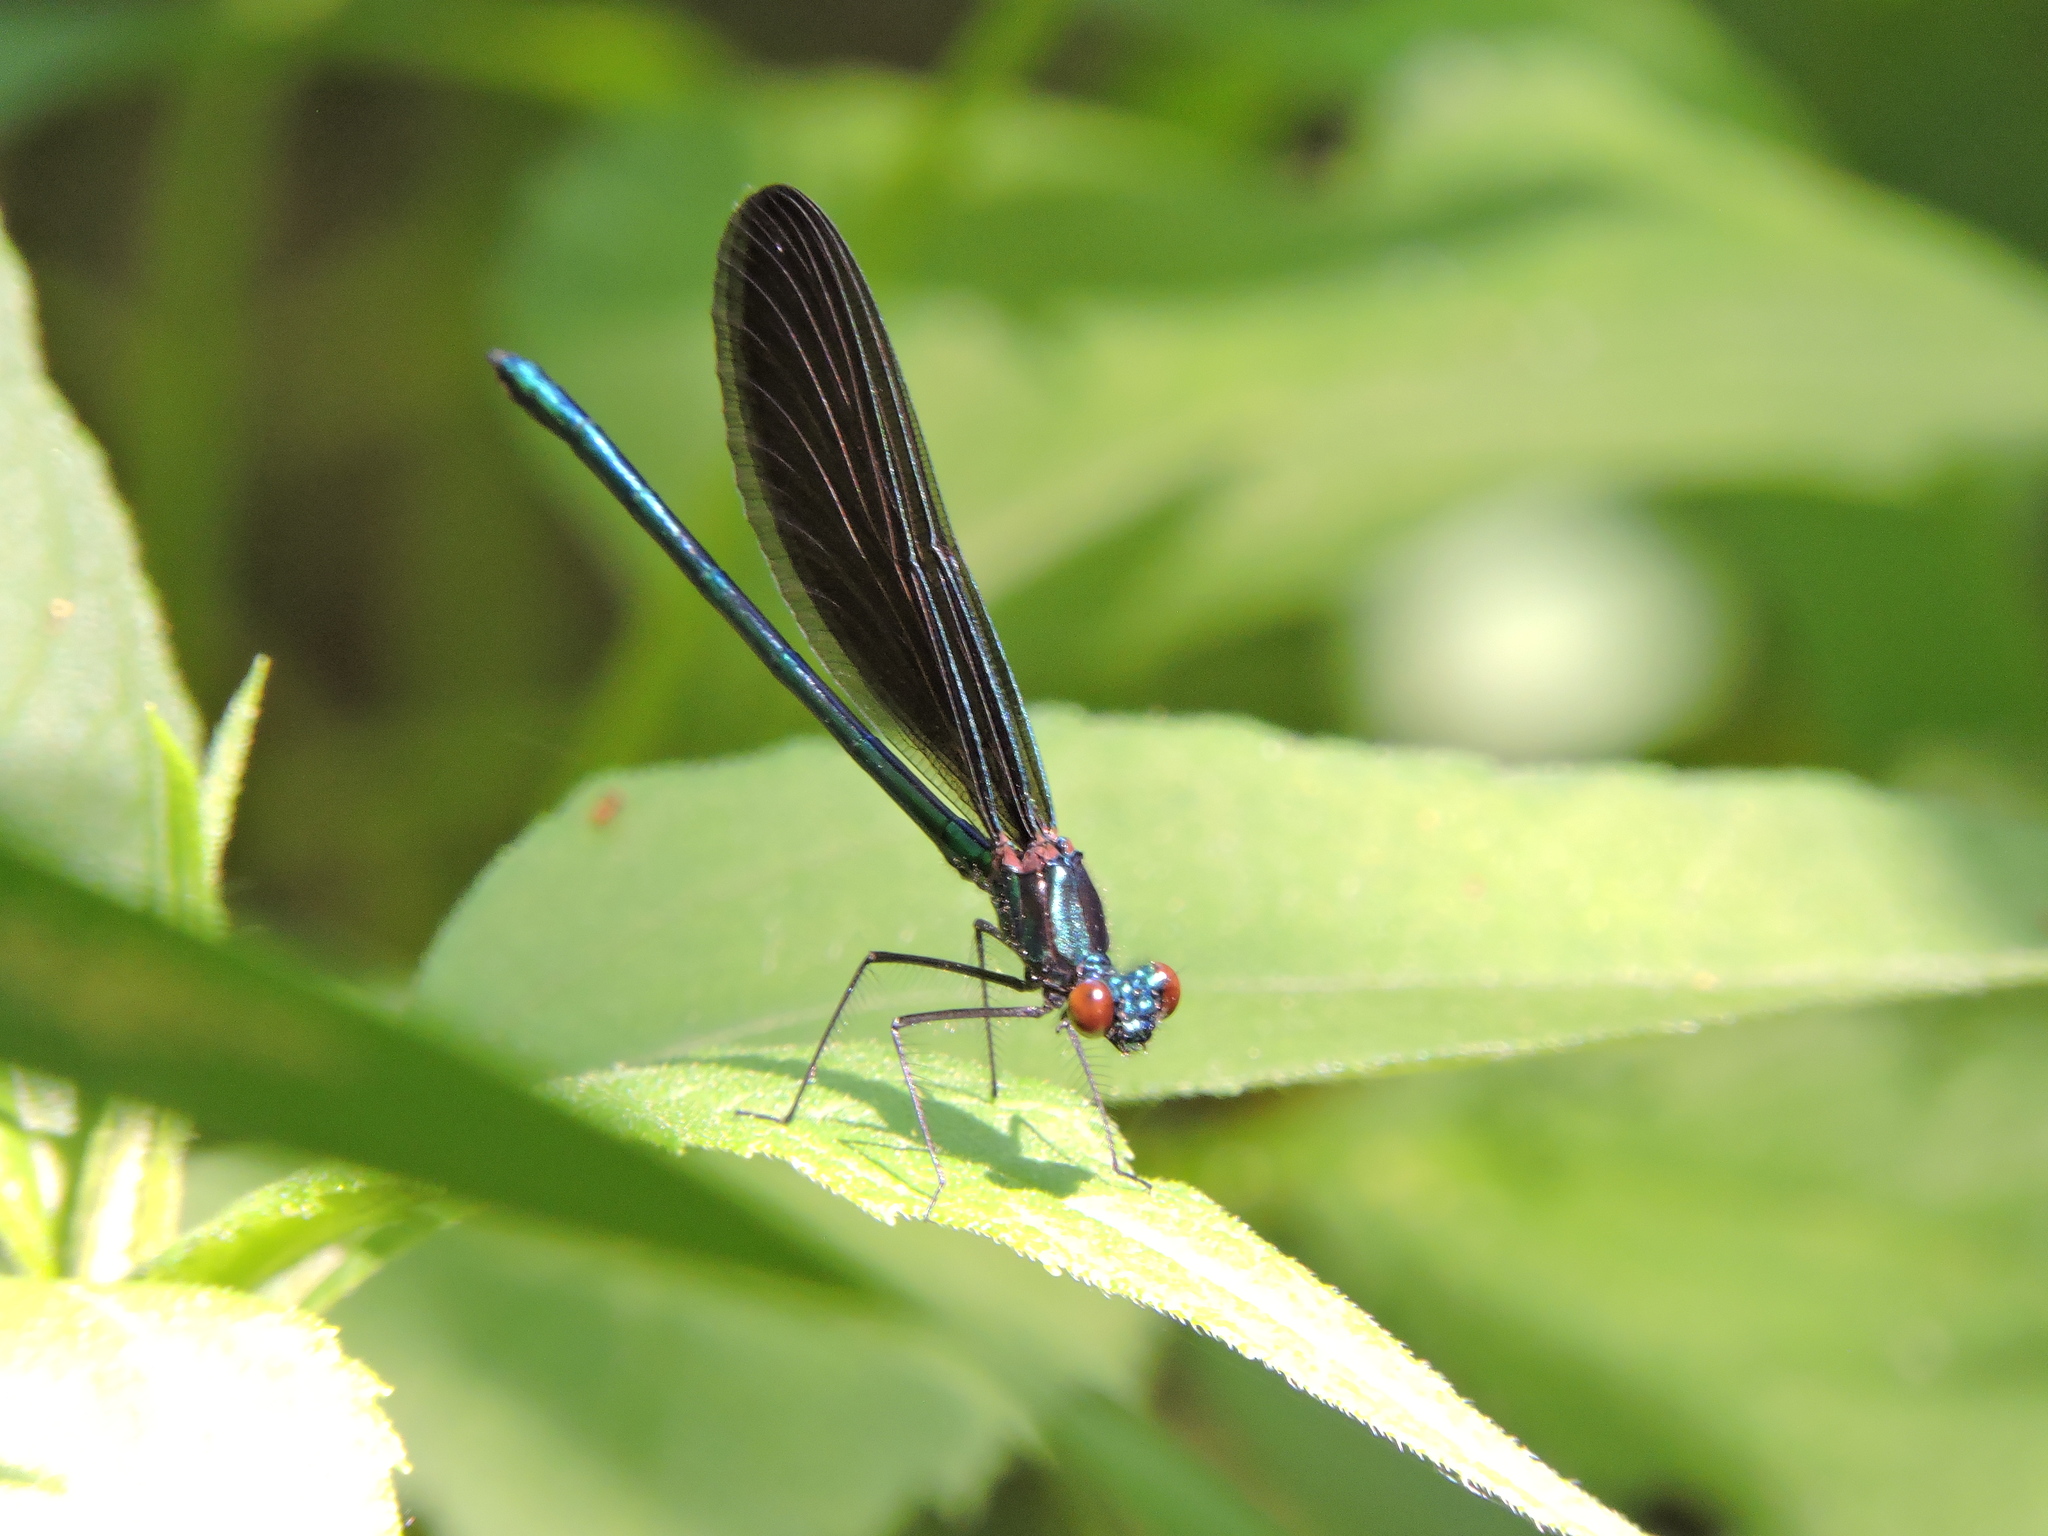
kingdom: Animalia
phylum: Arthropoda
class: Insecta
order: Odonata
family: Calopterygidae
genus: Calopteryx
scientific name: Calopteryx maculata
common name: Ebony jewelwing
